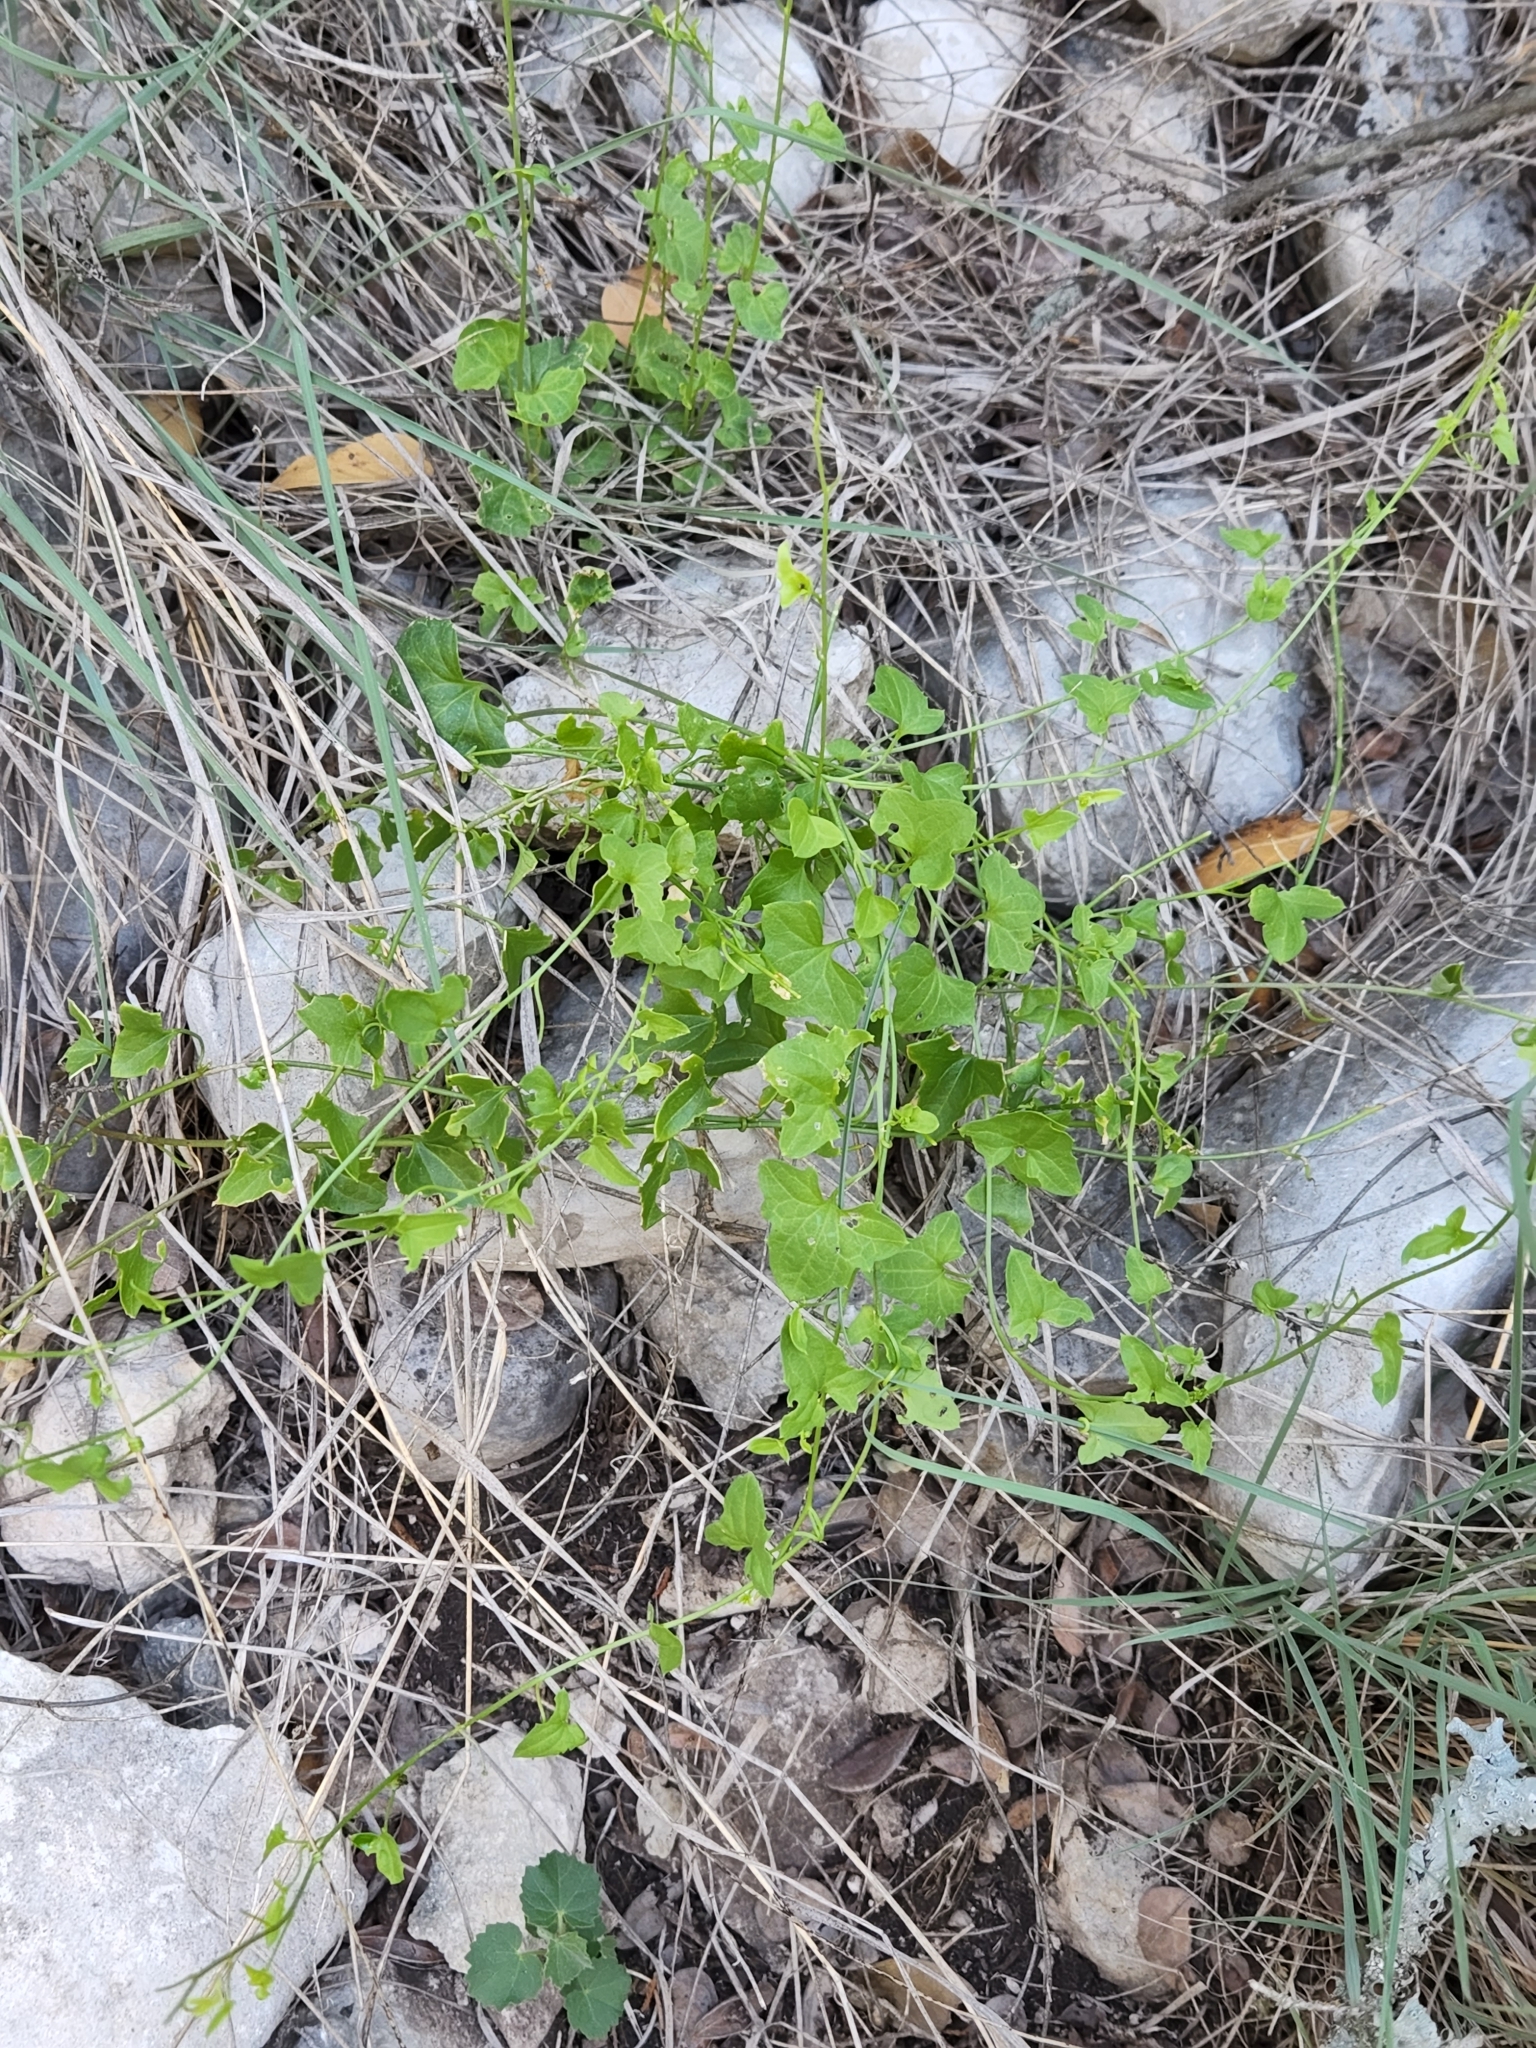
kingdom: Plantae
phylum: Tracheophyta
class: Magnoliopsida
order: Lamiales
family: Plantaginaceae
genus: Maurandella
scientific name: Maurandella antirrhiniflora
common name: Violet twining-snapdragon
